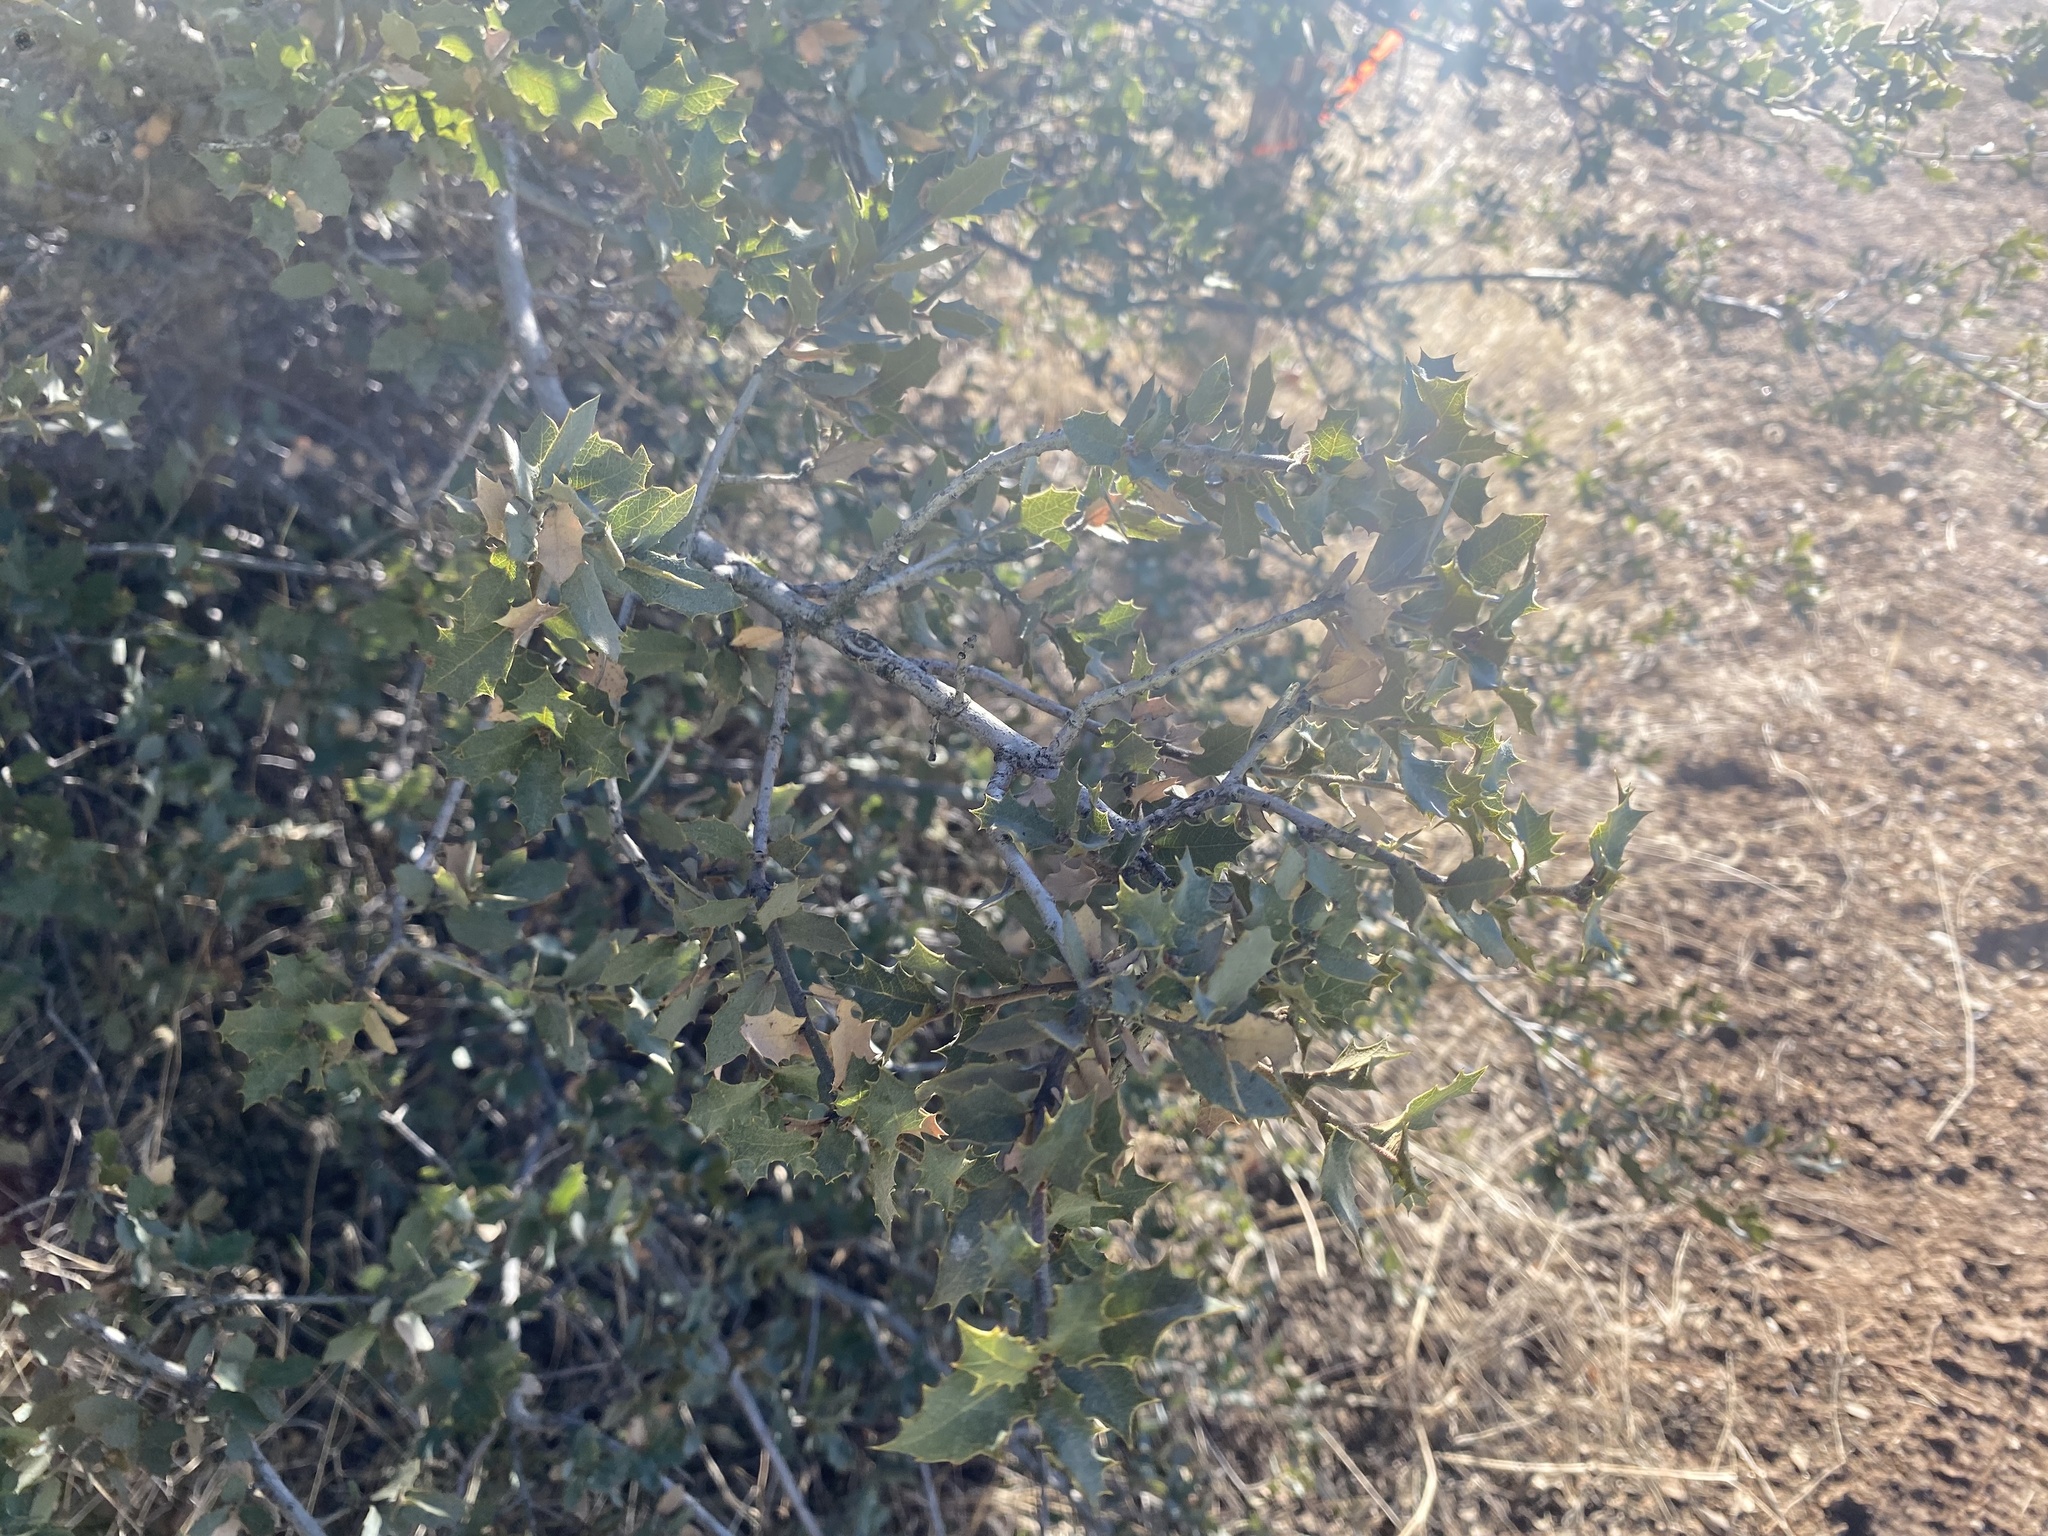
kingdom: Plantae
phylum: Tracheophyta
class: Magnoliopsida
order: Fagales
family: Fagaceae
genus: Quercus
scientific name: Quercus turbinella
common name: Sonoran scrub oak
